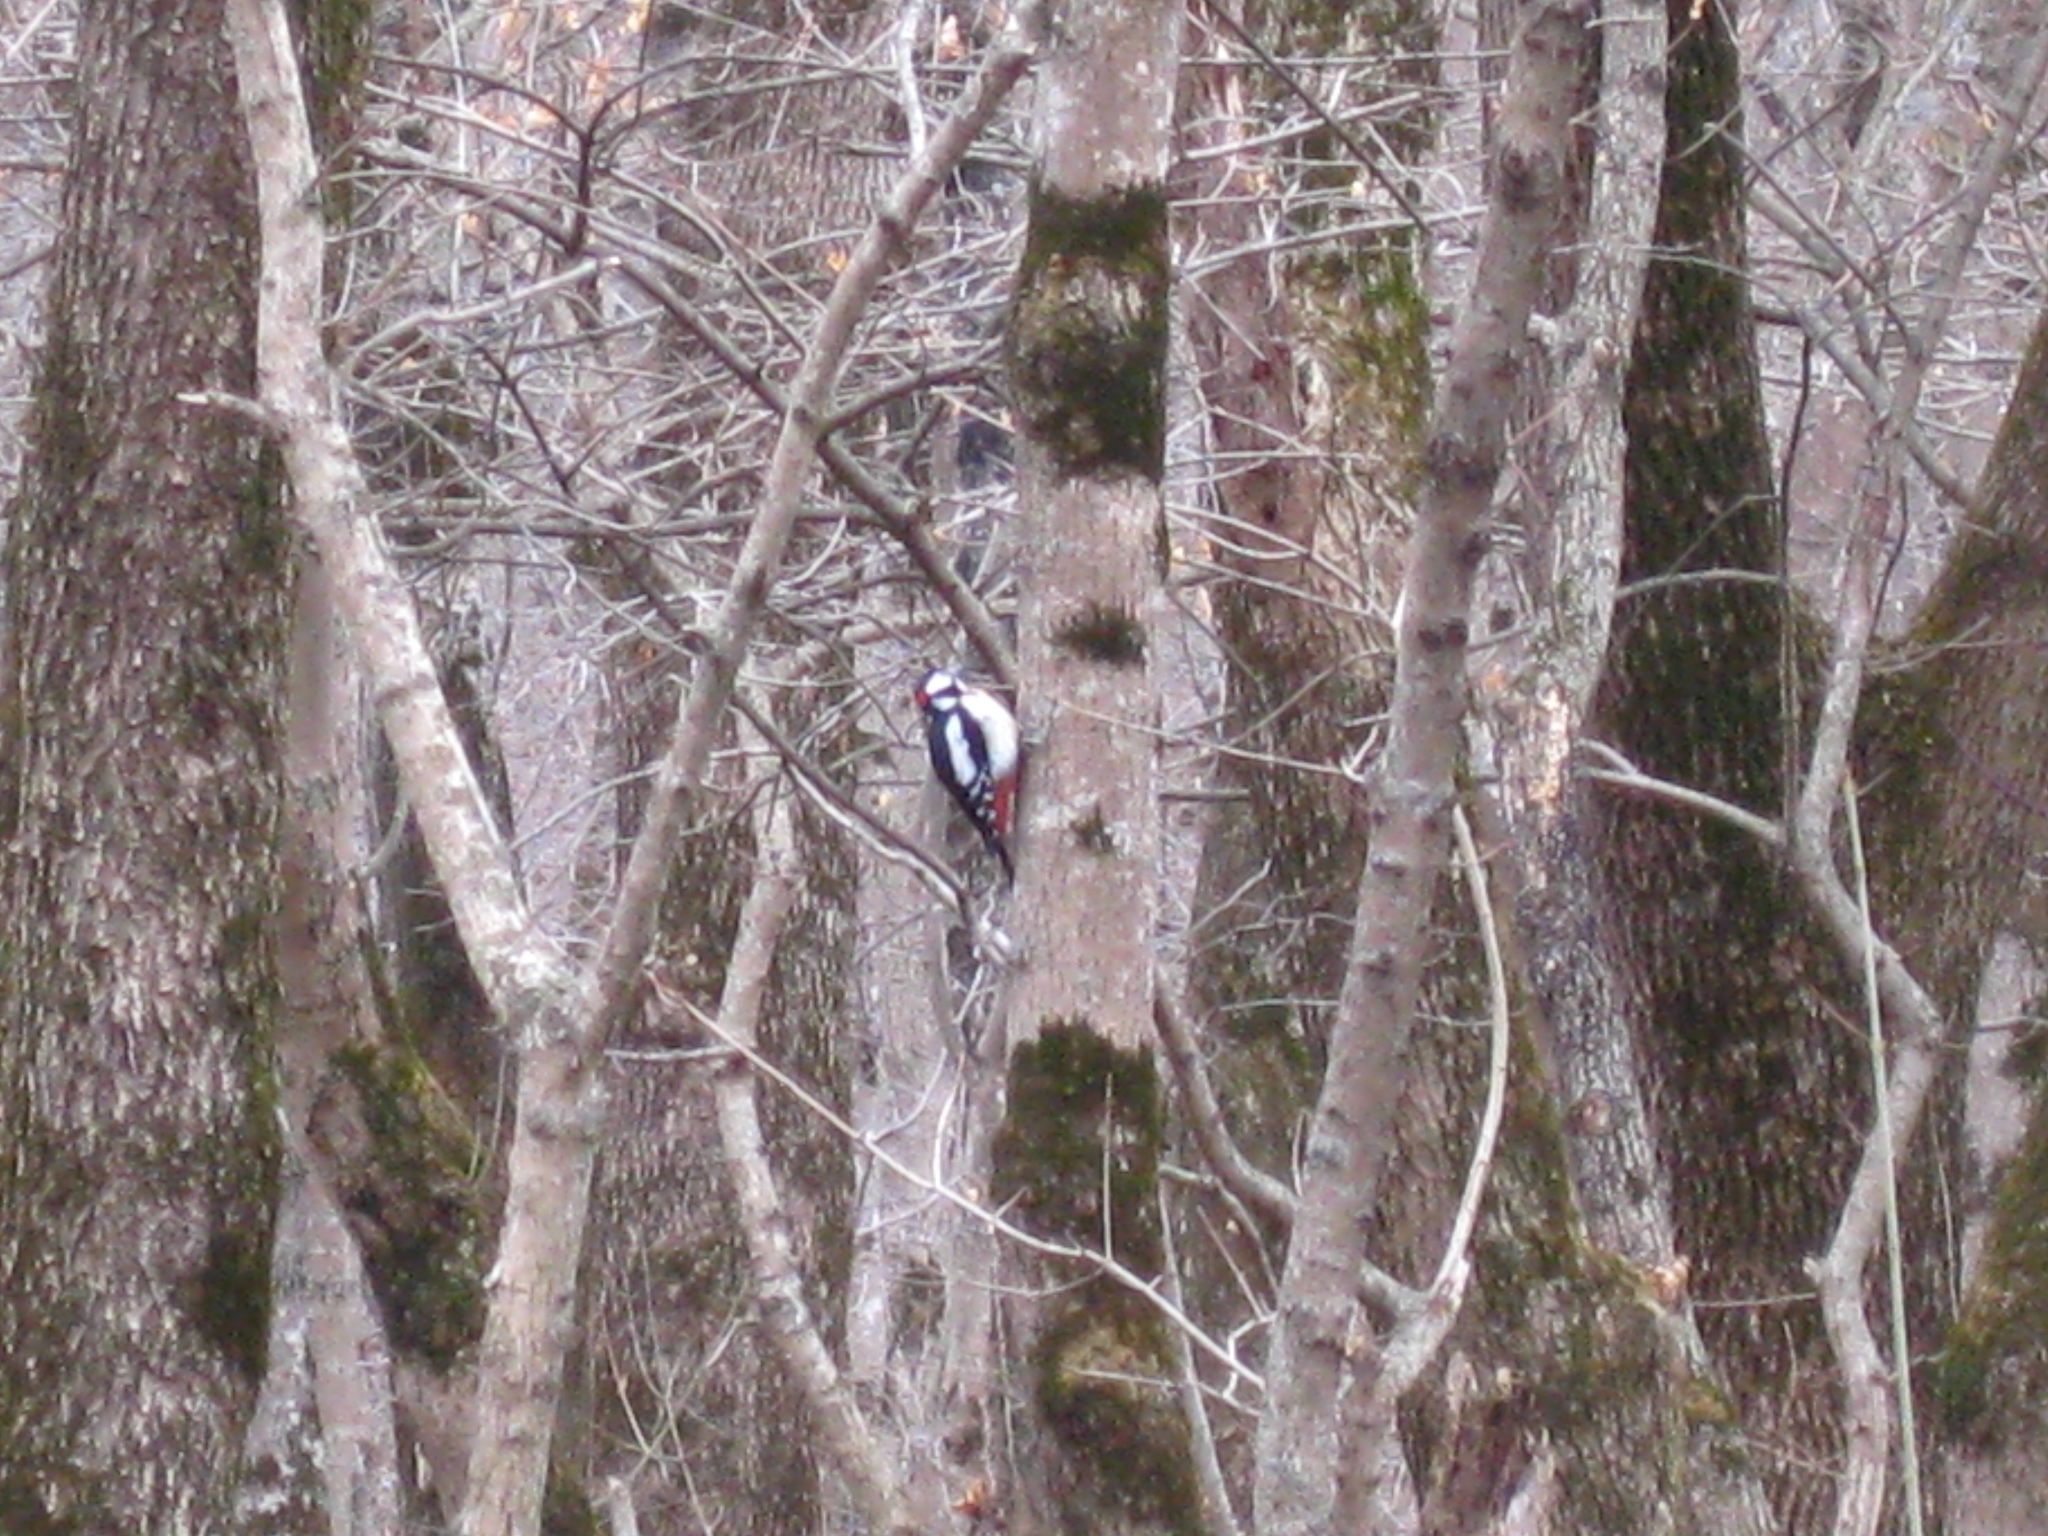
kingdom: Animalia
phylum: Chordata
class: Aves
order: Piciformes
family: Picidae
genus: Dendrocopos
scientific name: Dendrocopos major
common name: Great spotted woodpecker
